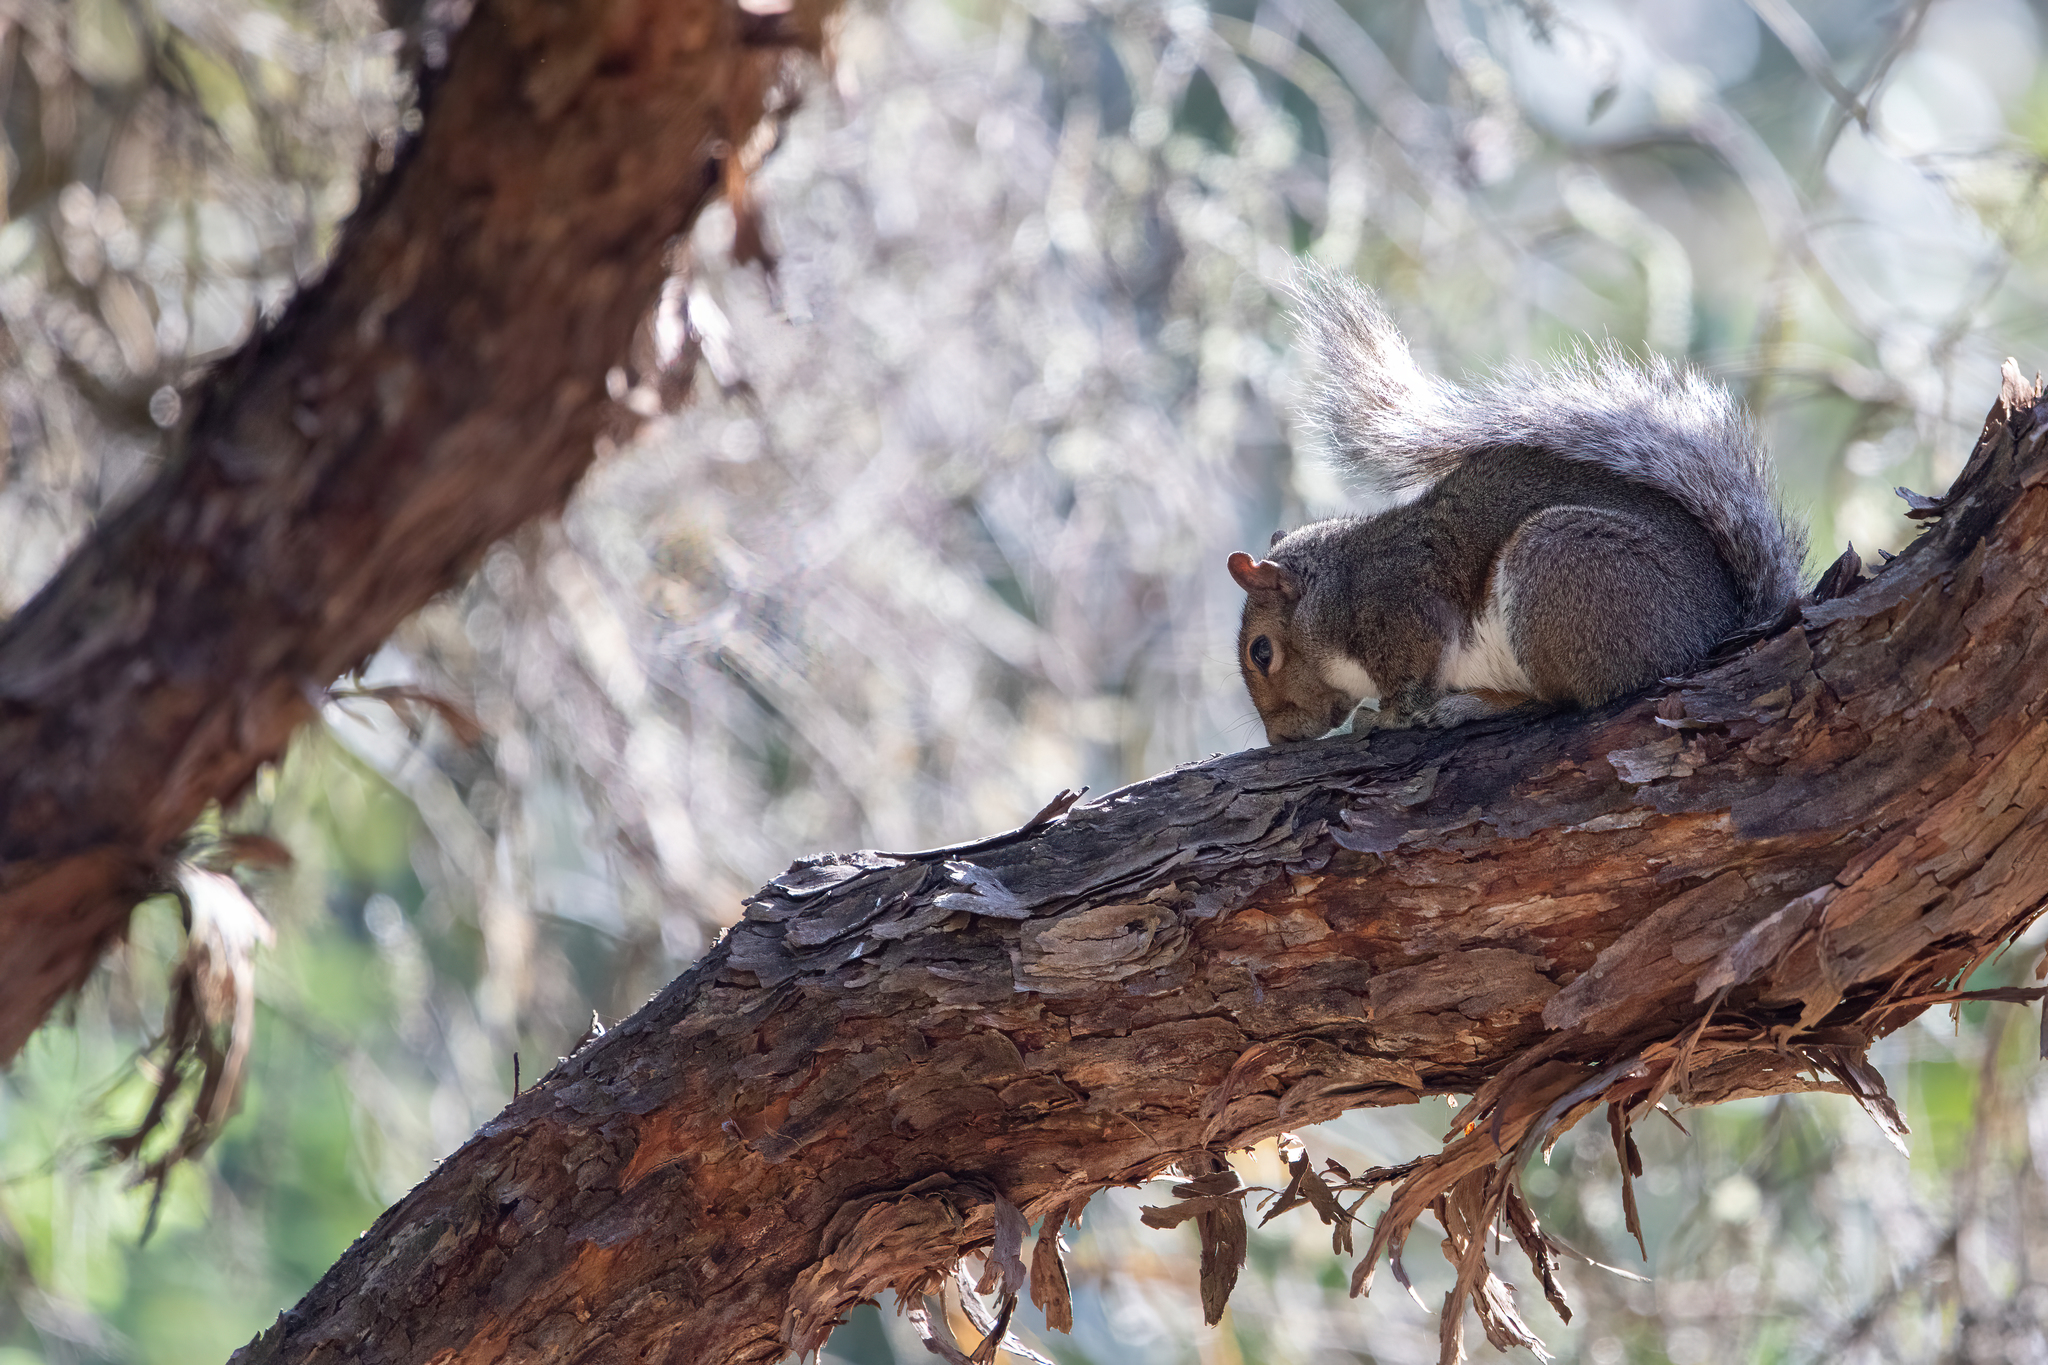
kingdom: Animalia
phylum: Chordata
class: Mammalia
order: Rodentia
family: Sciuridae
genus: Sciurus
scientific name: Sciurus carolinensis
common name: Eastern gray squirrel
